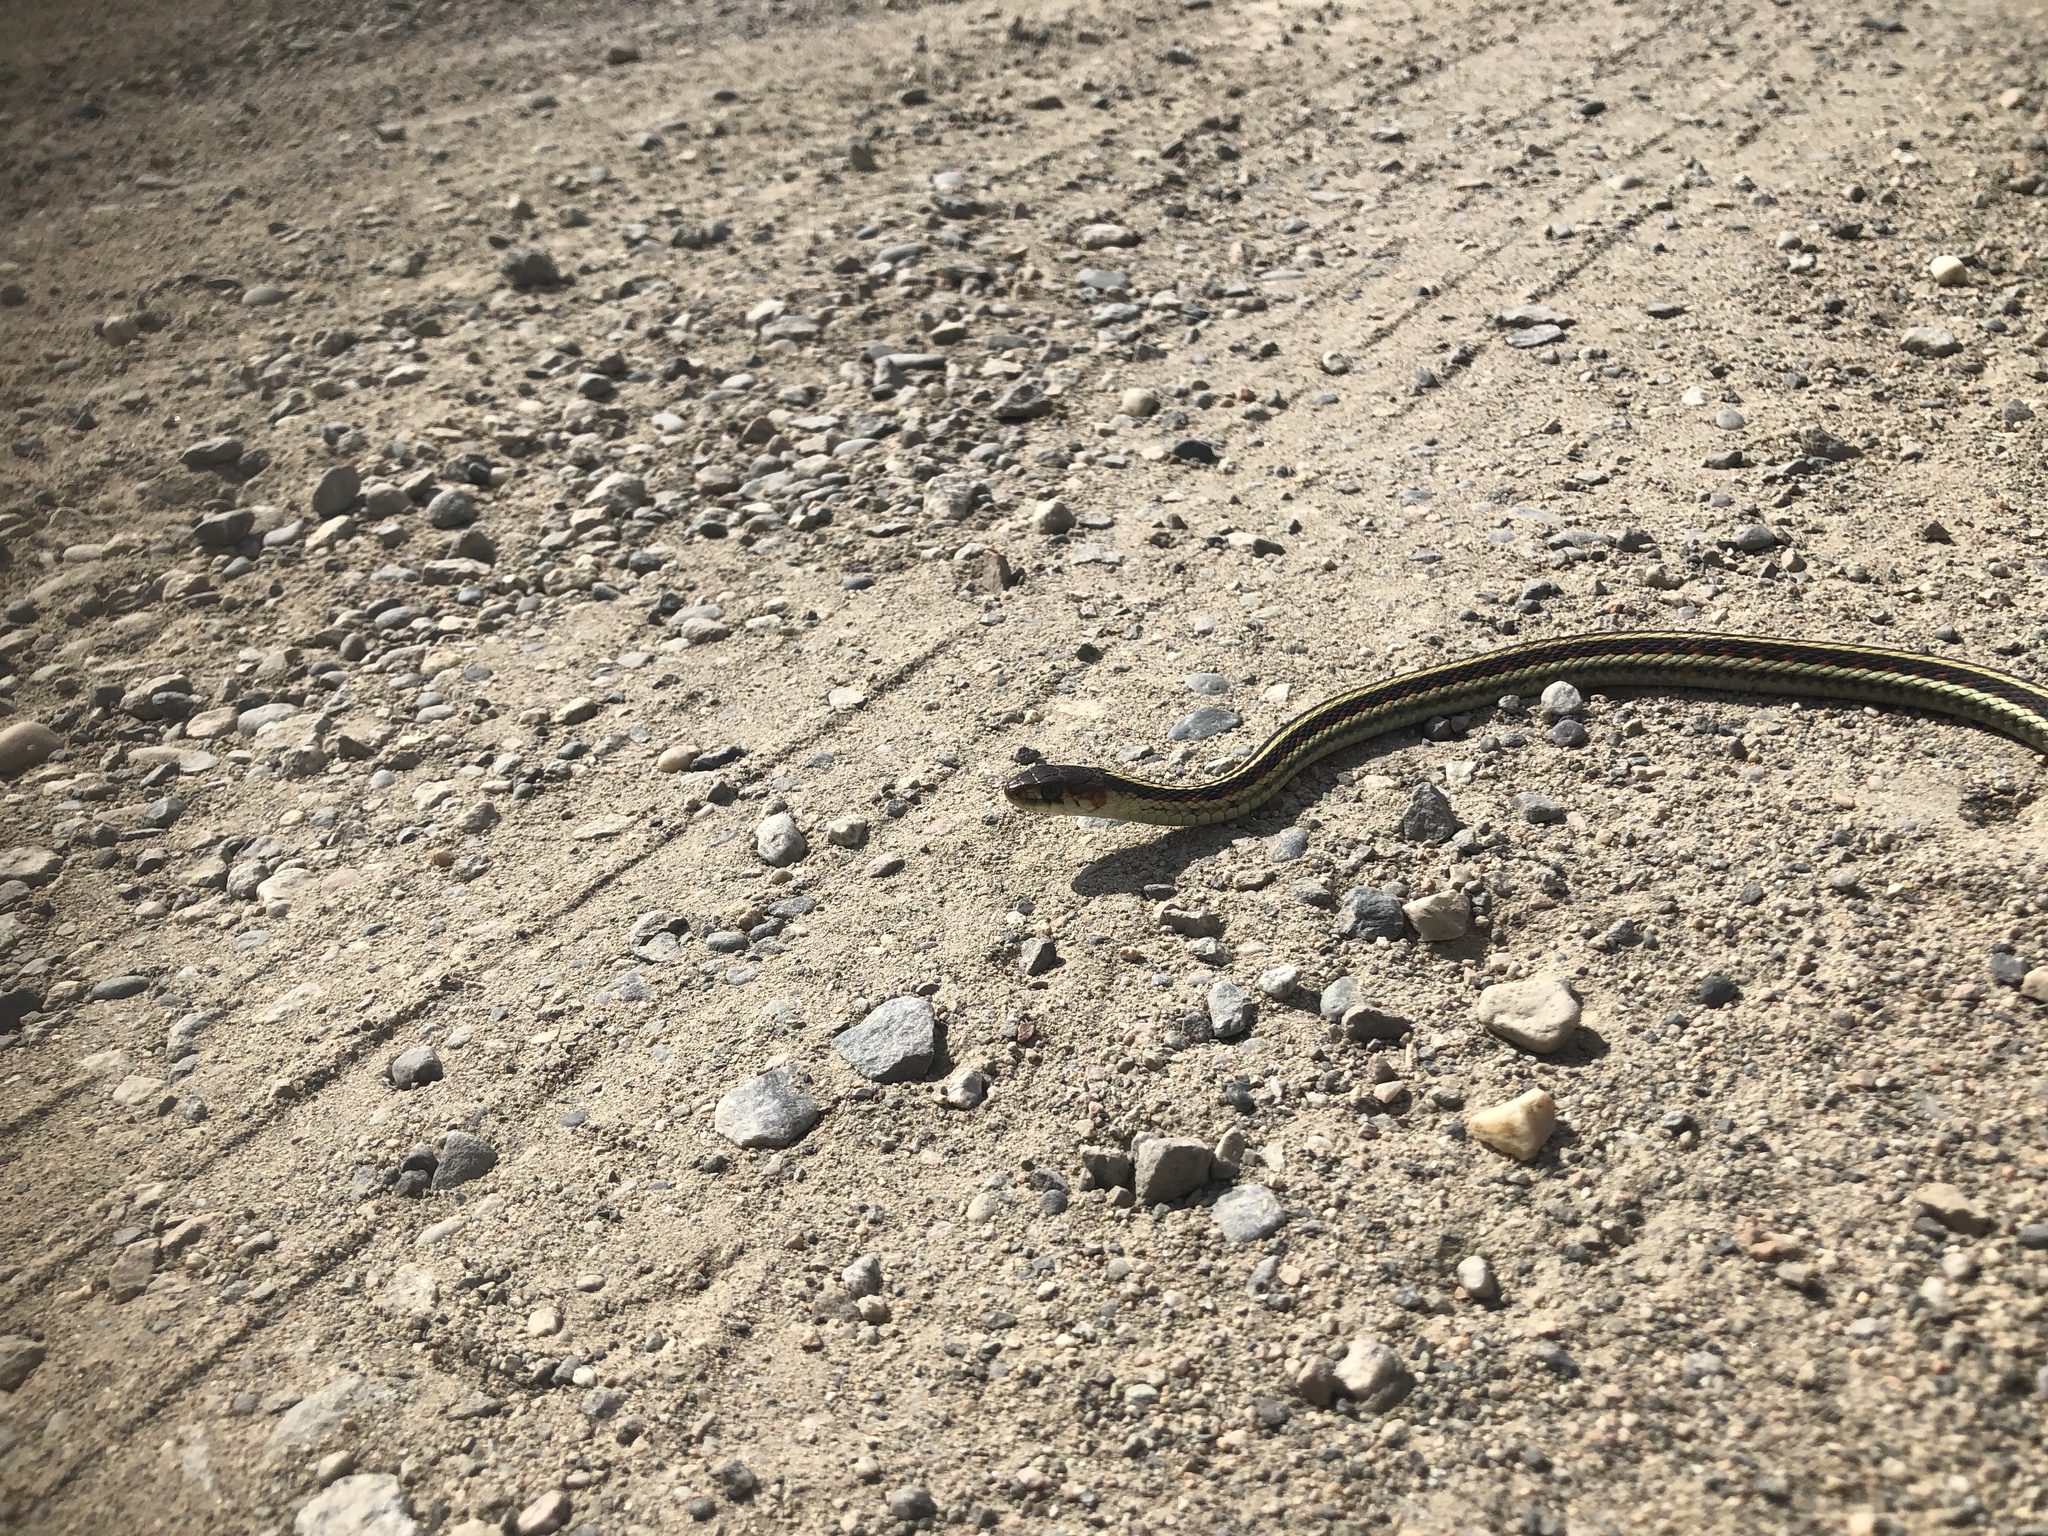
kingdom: Animalia
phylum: Chordata
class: Squamata
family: Colubridae
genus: Thamnophis
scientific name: Thamnophis sirtalis
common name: Common garter snake
